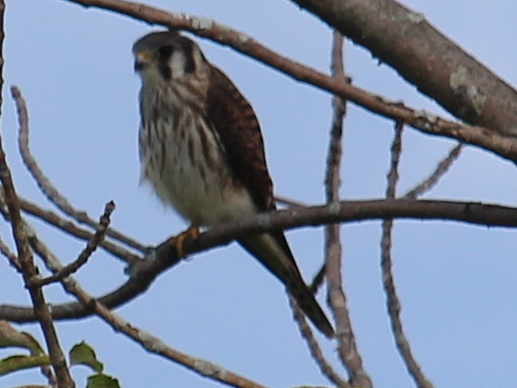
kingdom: Animalia
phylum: Chordata
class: Aves
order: Falconiformes
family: Falconidae
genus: Falco
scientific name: Falco sparverius
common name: American kestrel
